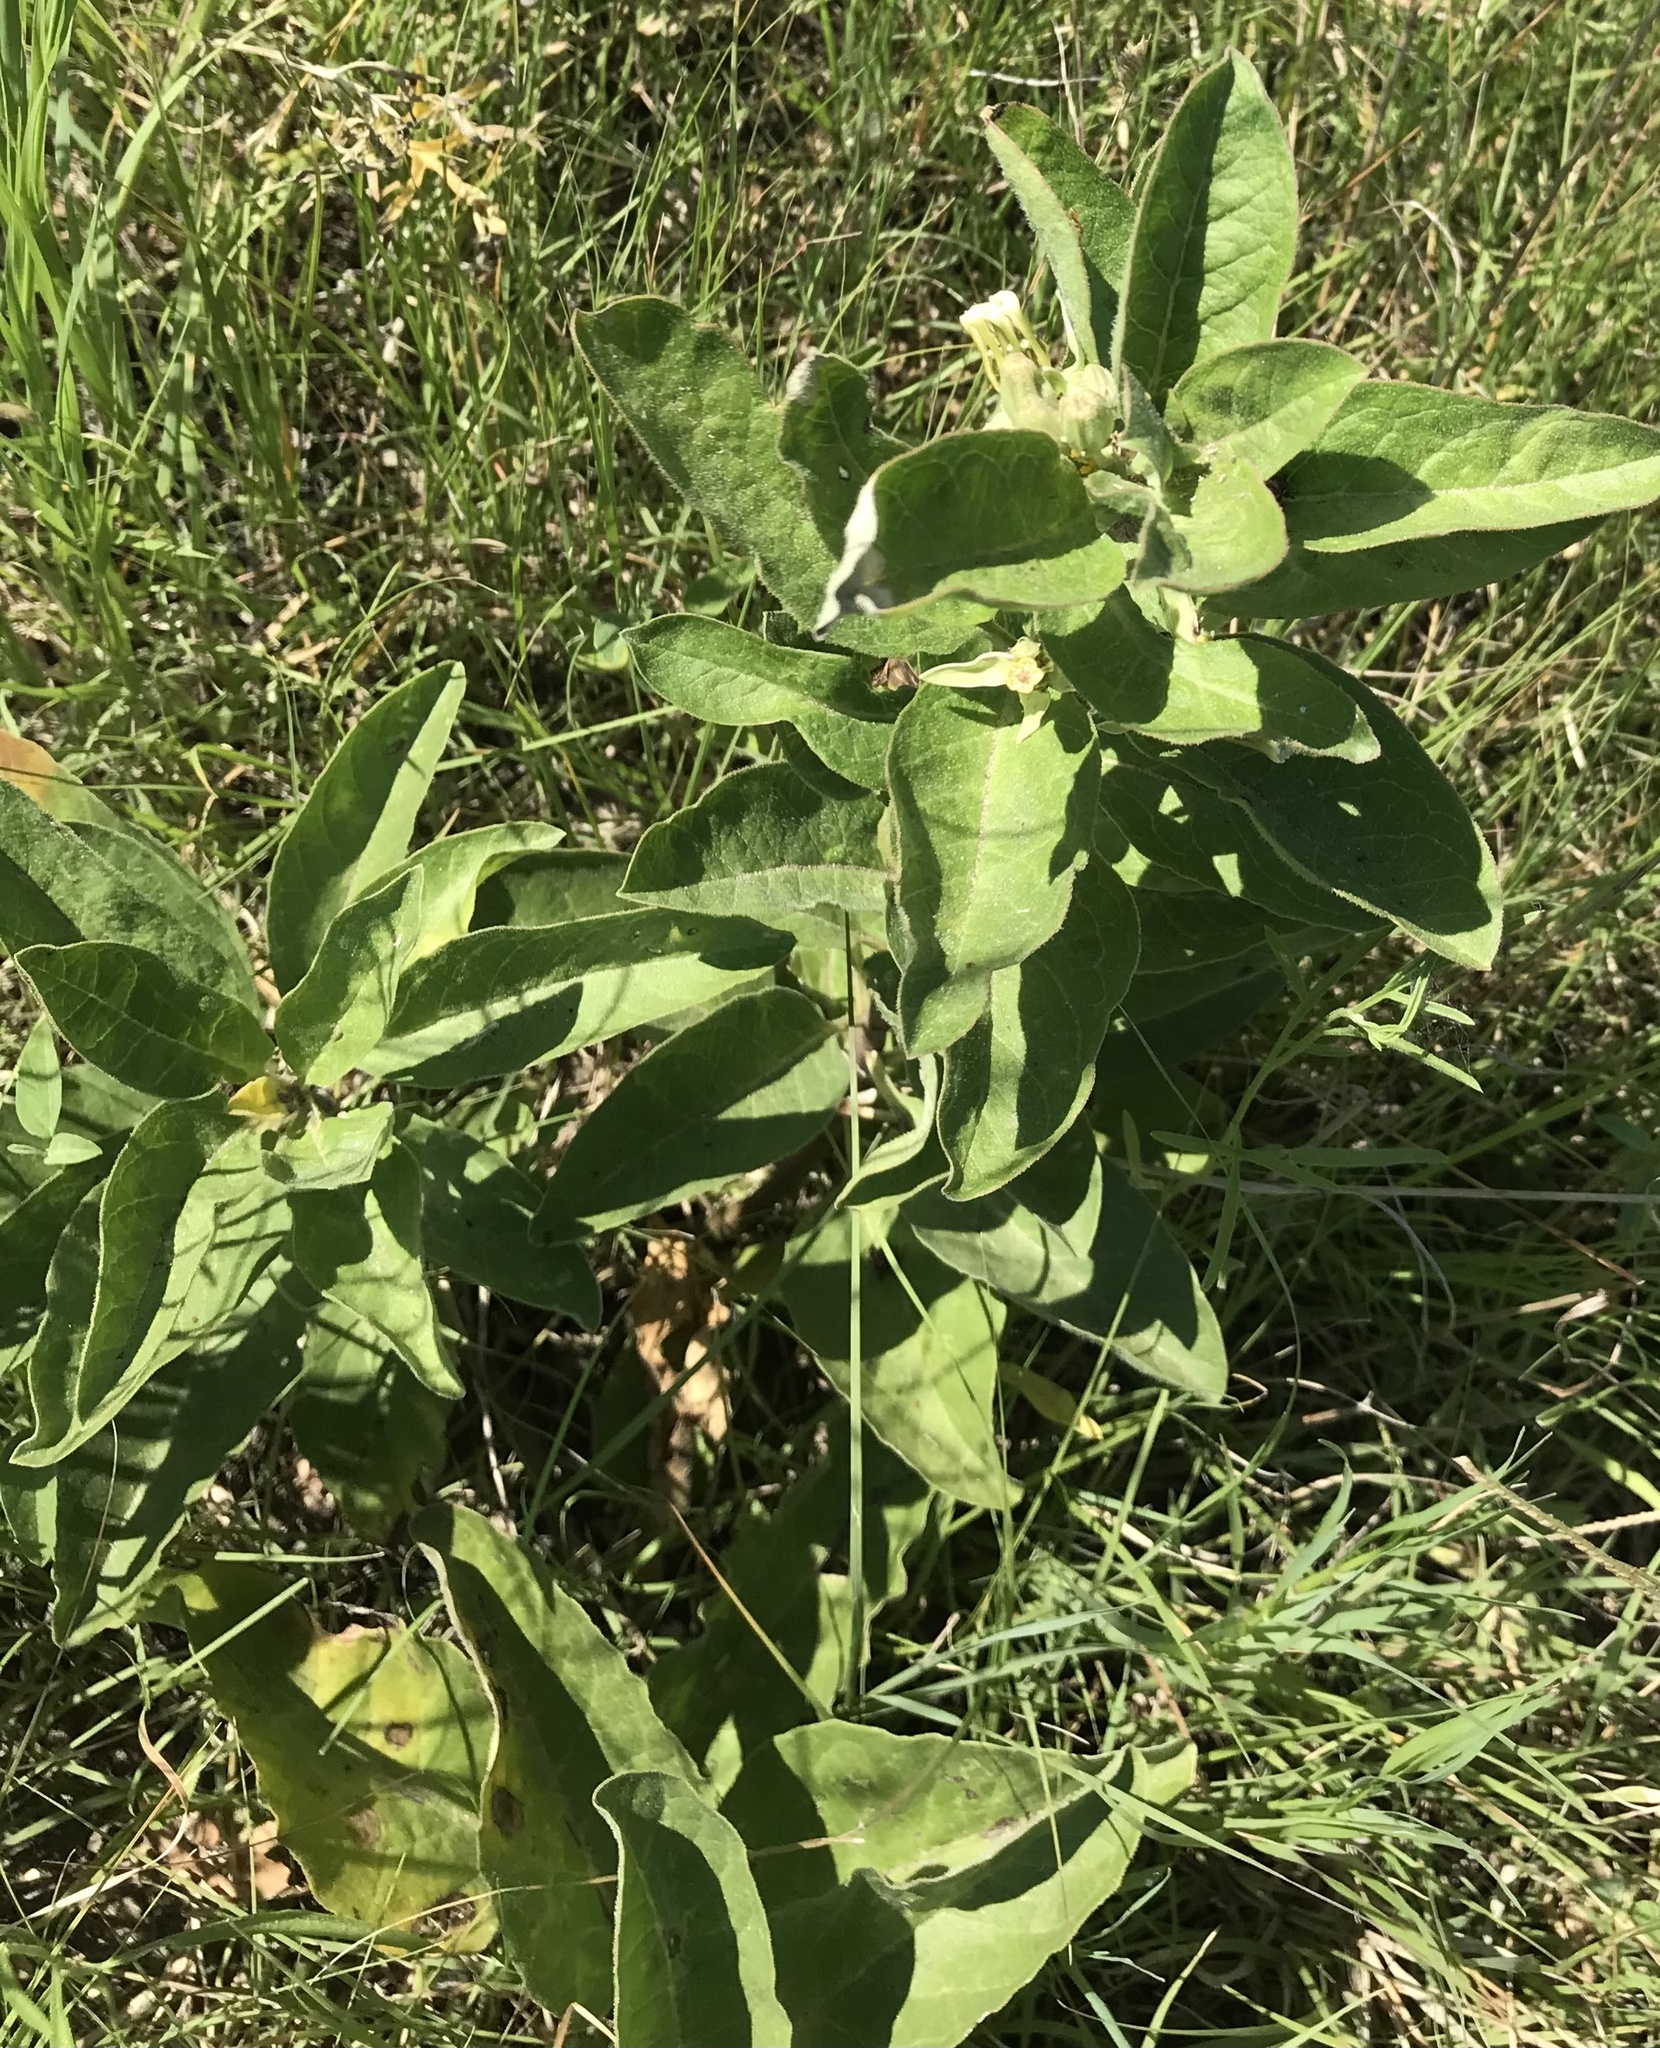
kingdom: Plantae
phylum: Tracheophyta
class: Magnoliopsida
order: Gentianales
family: Apocynaceae
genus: Asclepias
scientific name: Asclepias oenotheroides
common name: Zizotes milkweed
